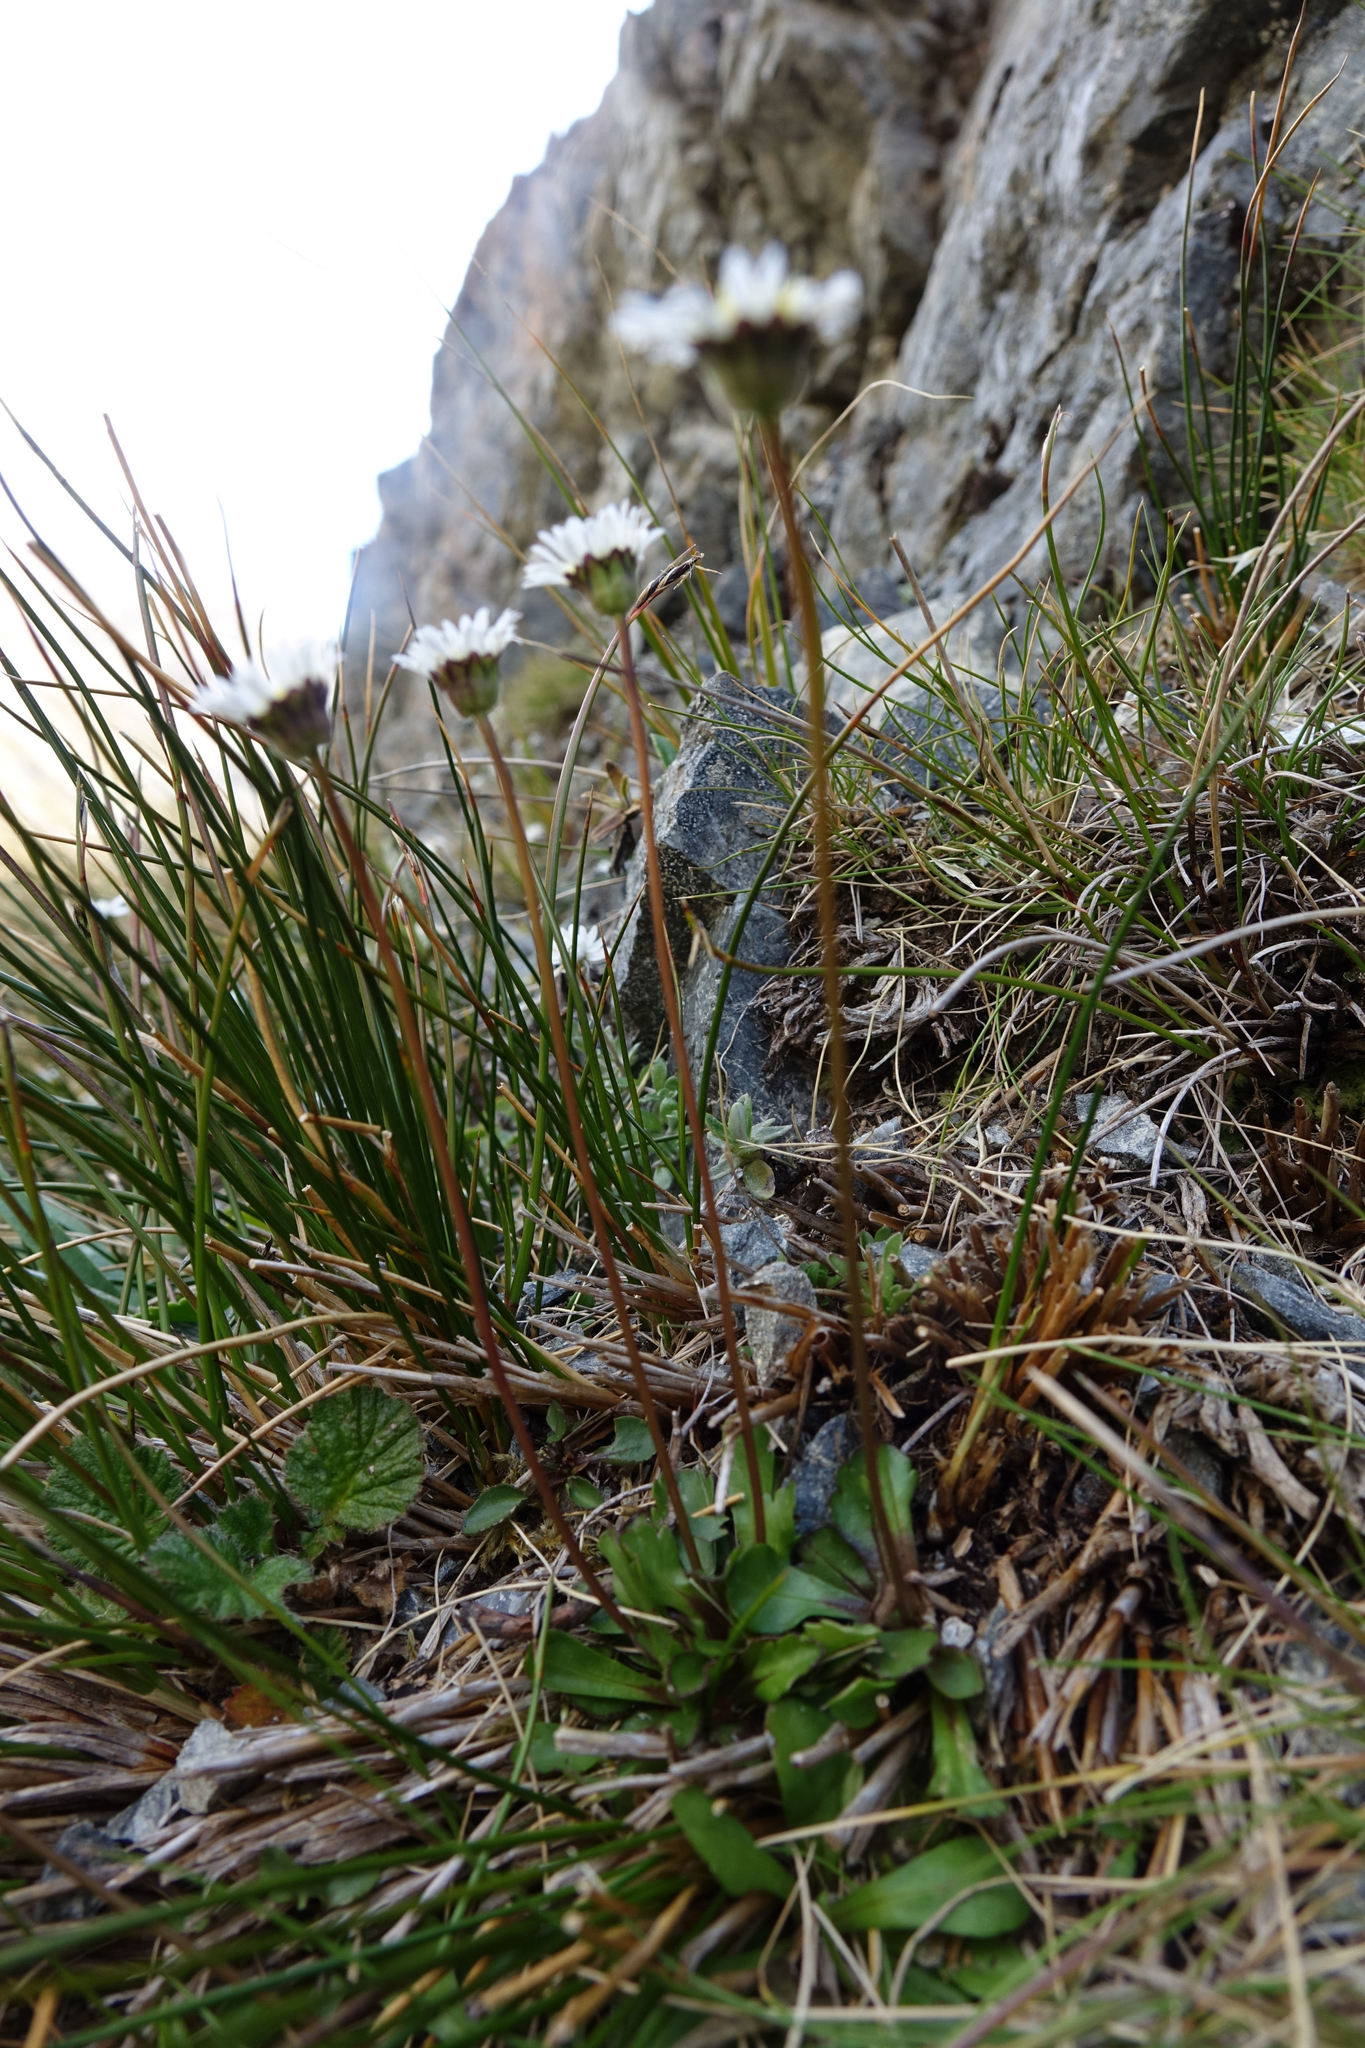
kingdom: Plantae
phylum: Tracheophyta
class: Magnoliopsida
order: Asterales
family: Asteraceae
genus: Brachyscome
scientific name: Brachyscome longiscapa
